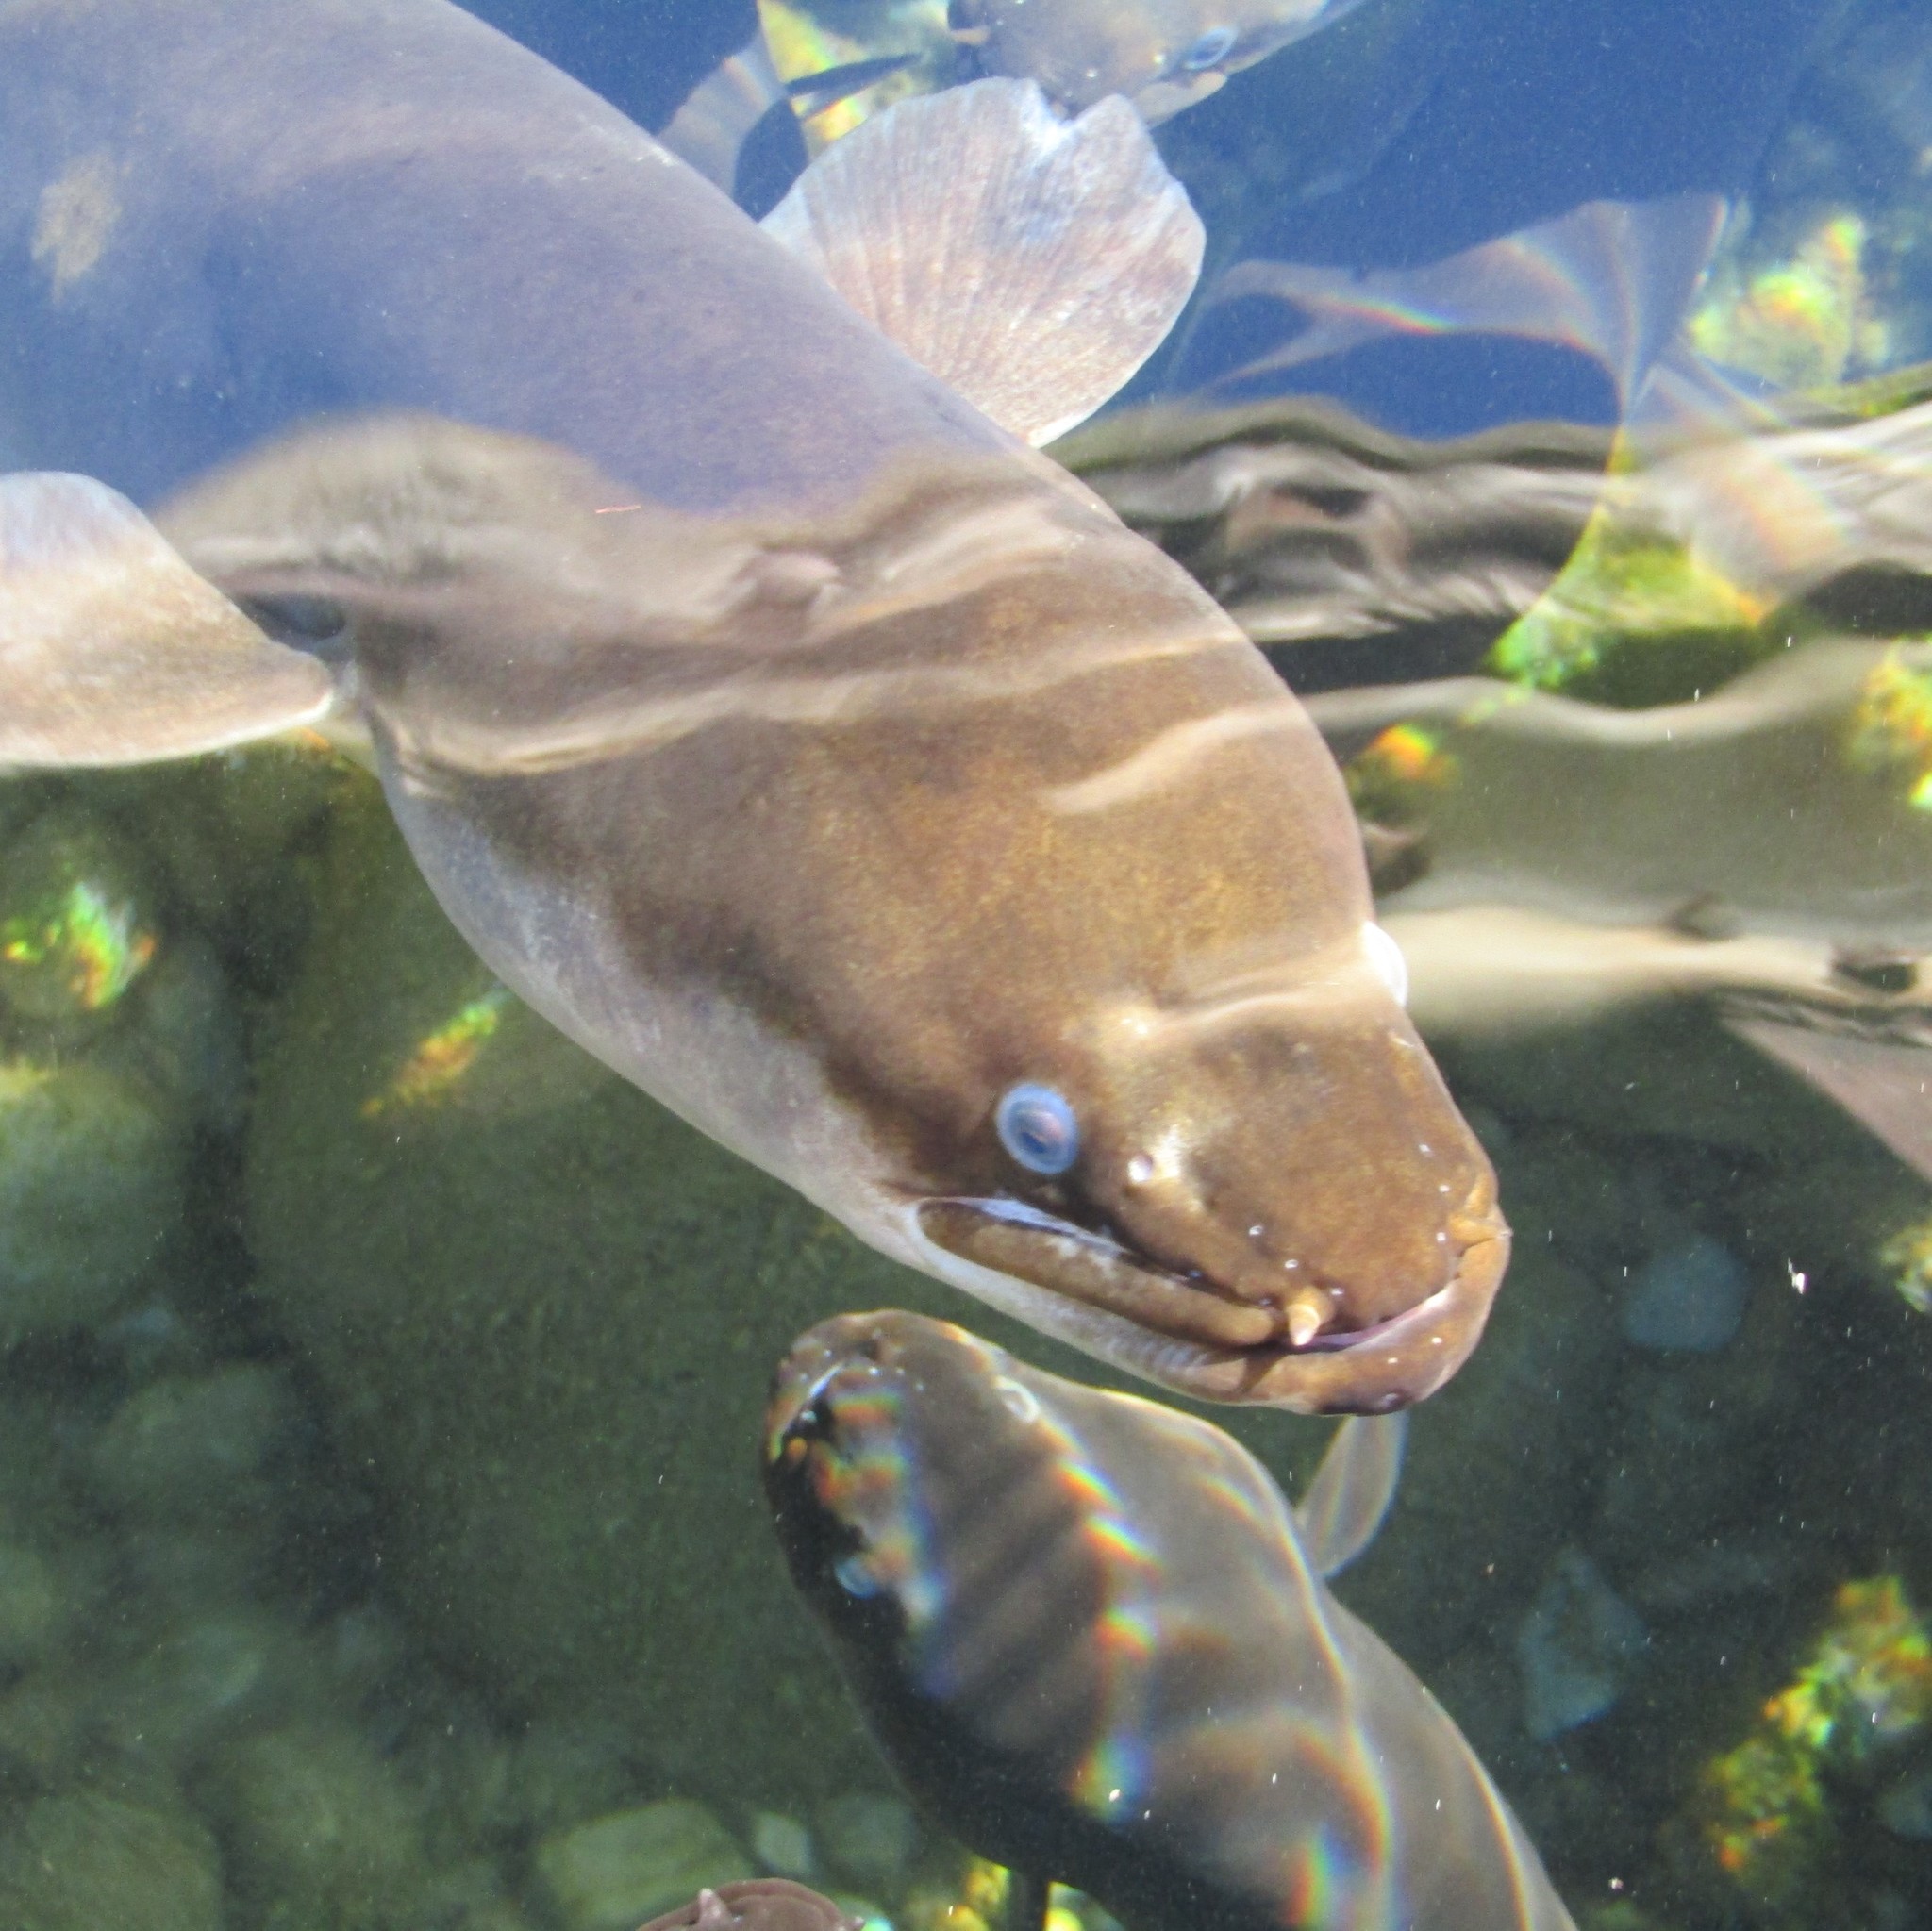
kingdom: Animalia
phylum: Chordata
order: Anguilliformes
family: Anguillidae
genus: Anguilla
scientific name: Anguilla dieffenbachii
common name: New zealand longfin eel
